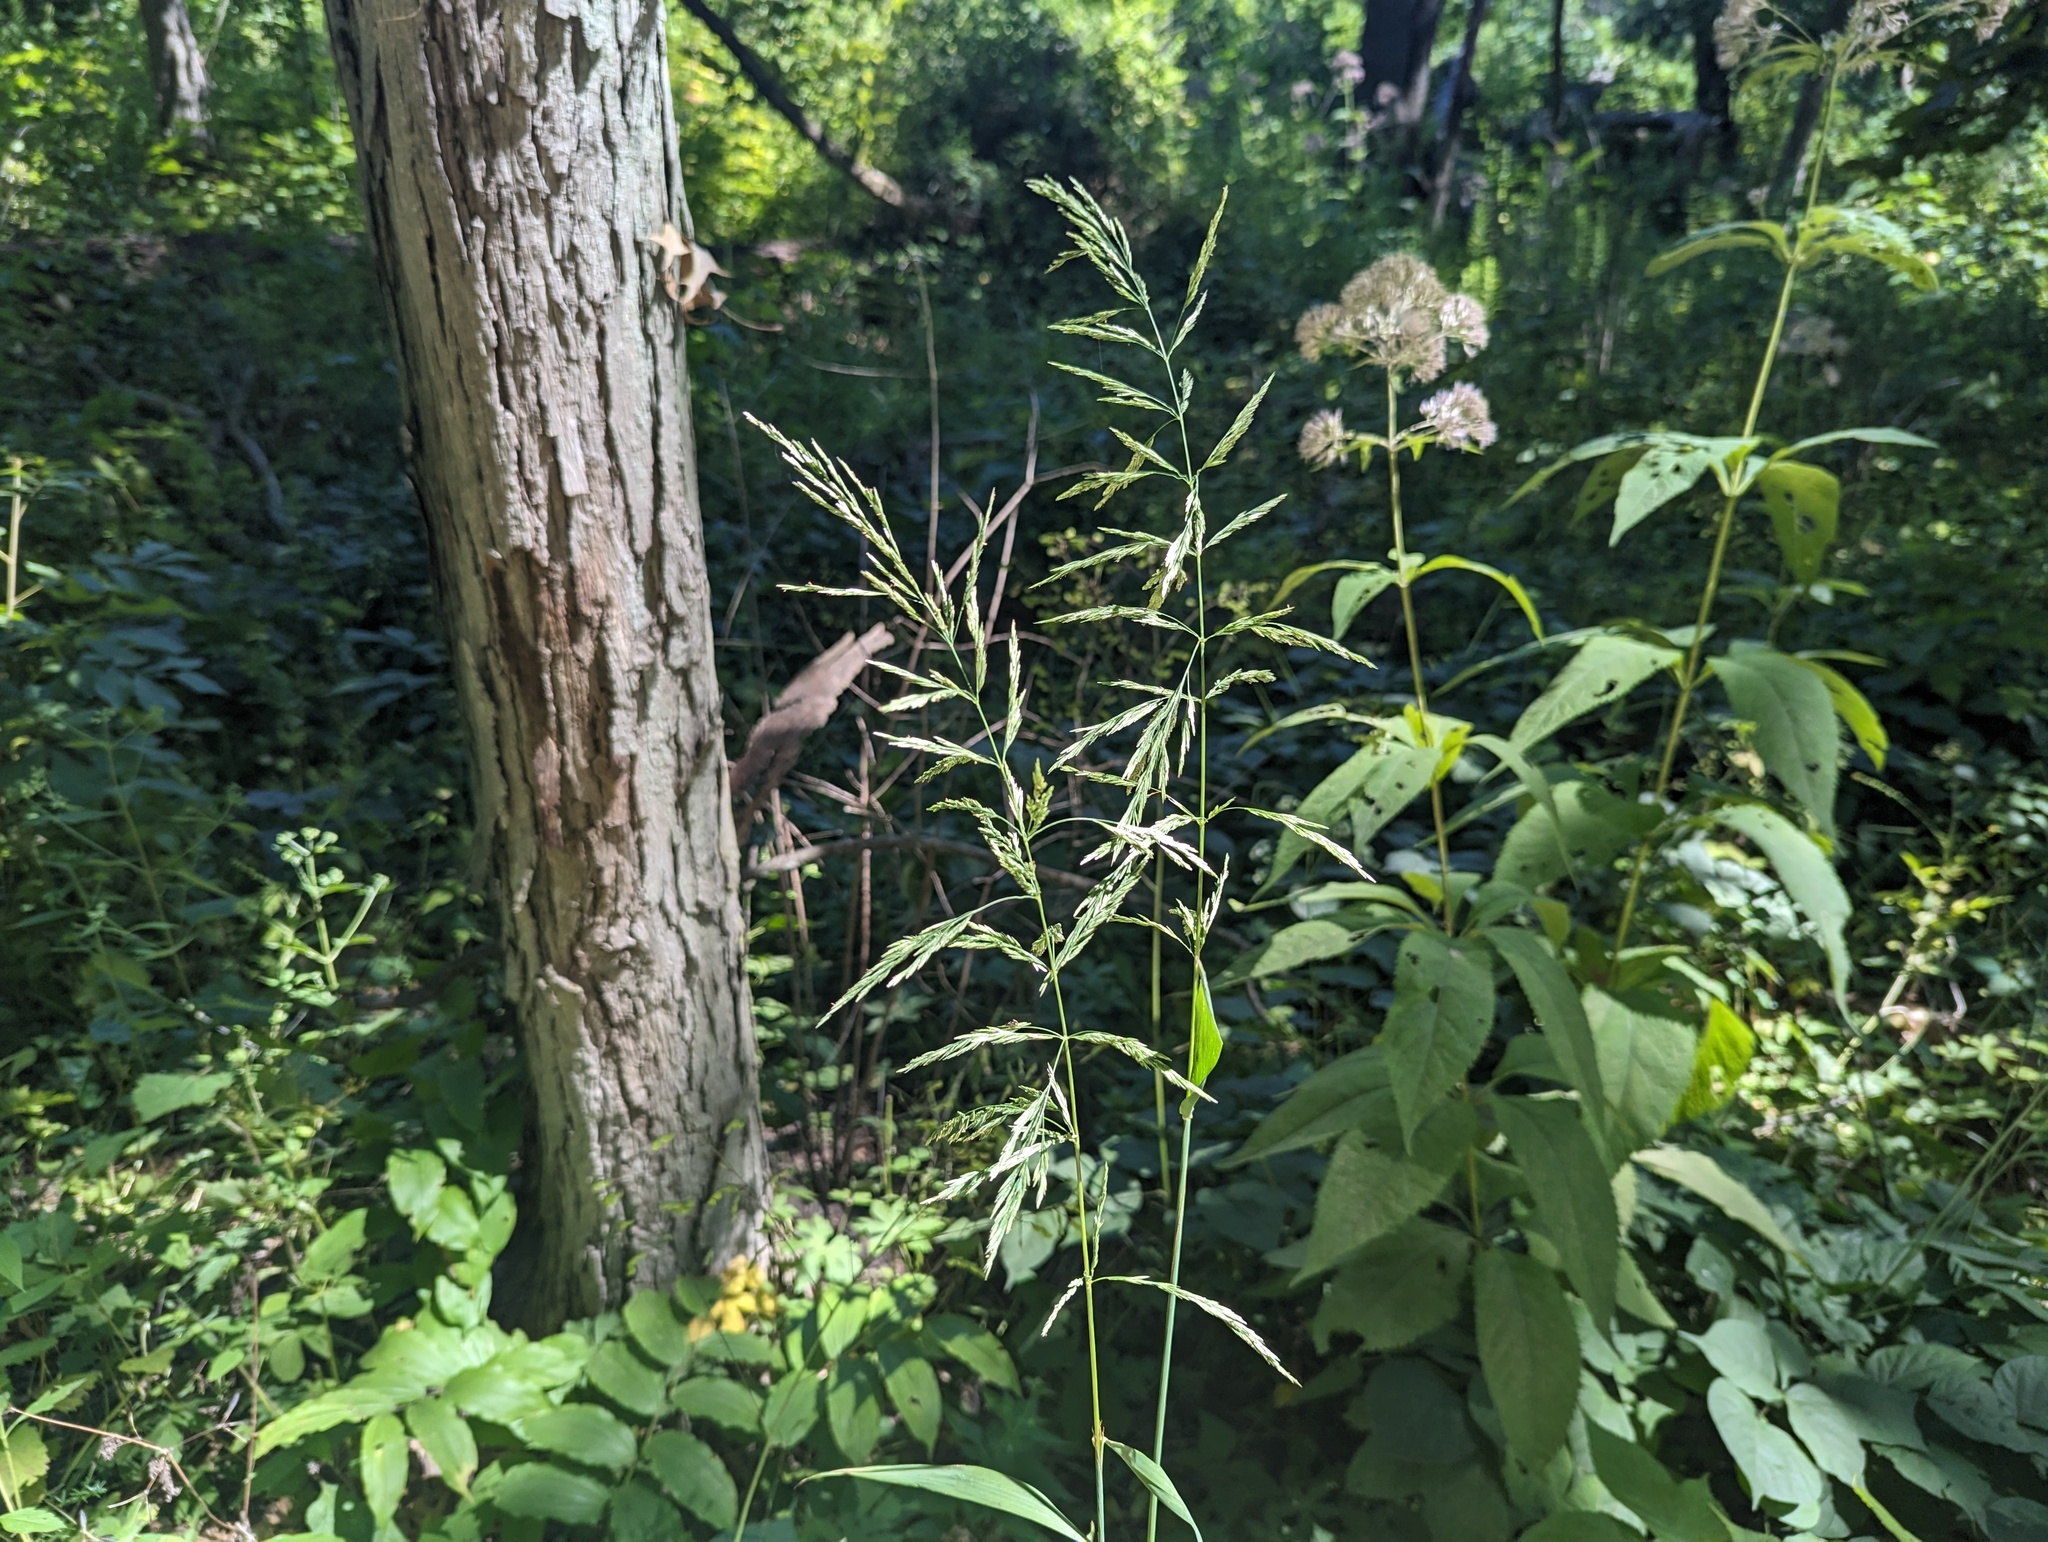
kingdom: Plantae
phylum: Tracheophyta
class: Liliopsida
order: Poales
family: Poaceae
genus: Cinna
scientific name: Cinna arundinacea
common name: Stout woodreed
